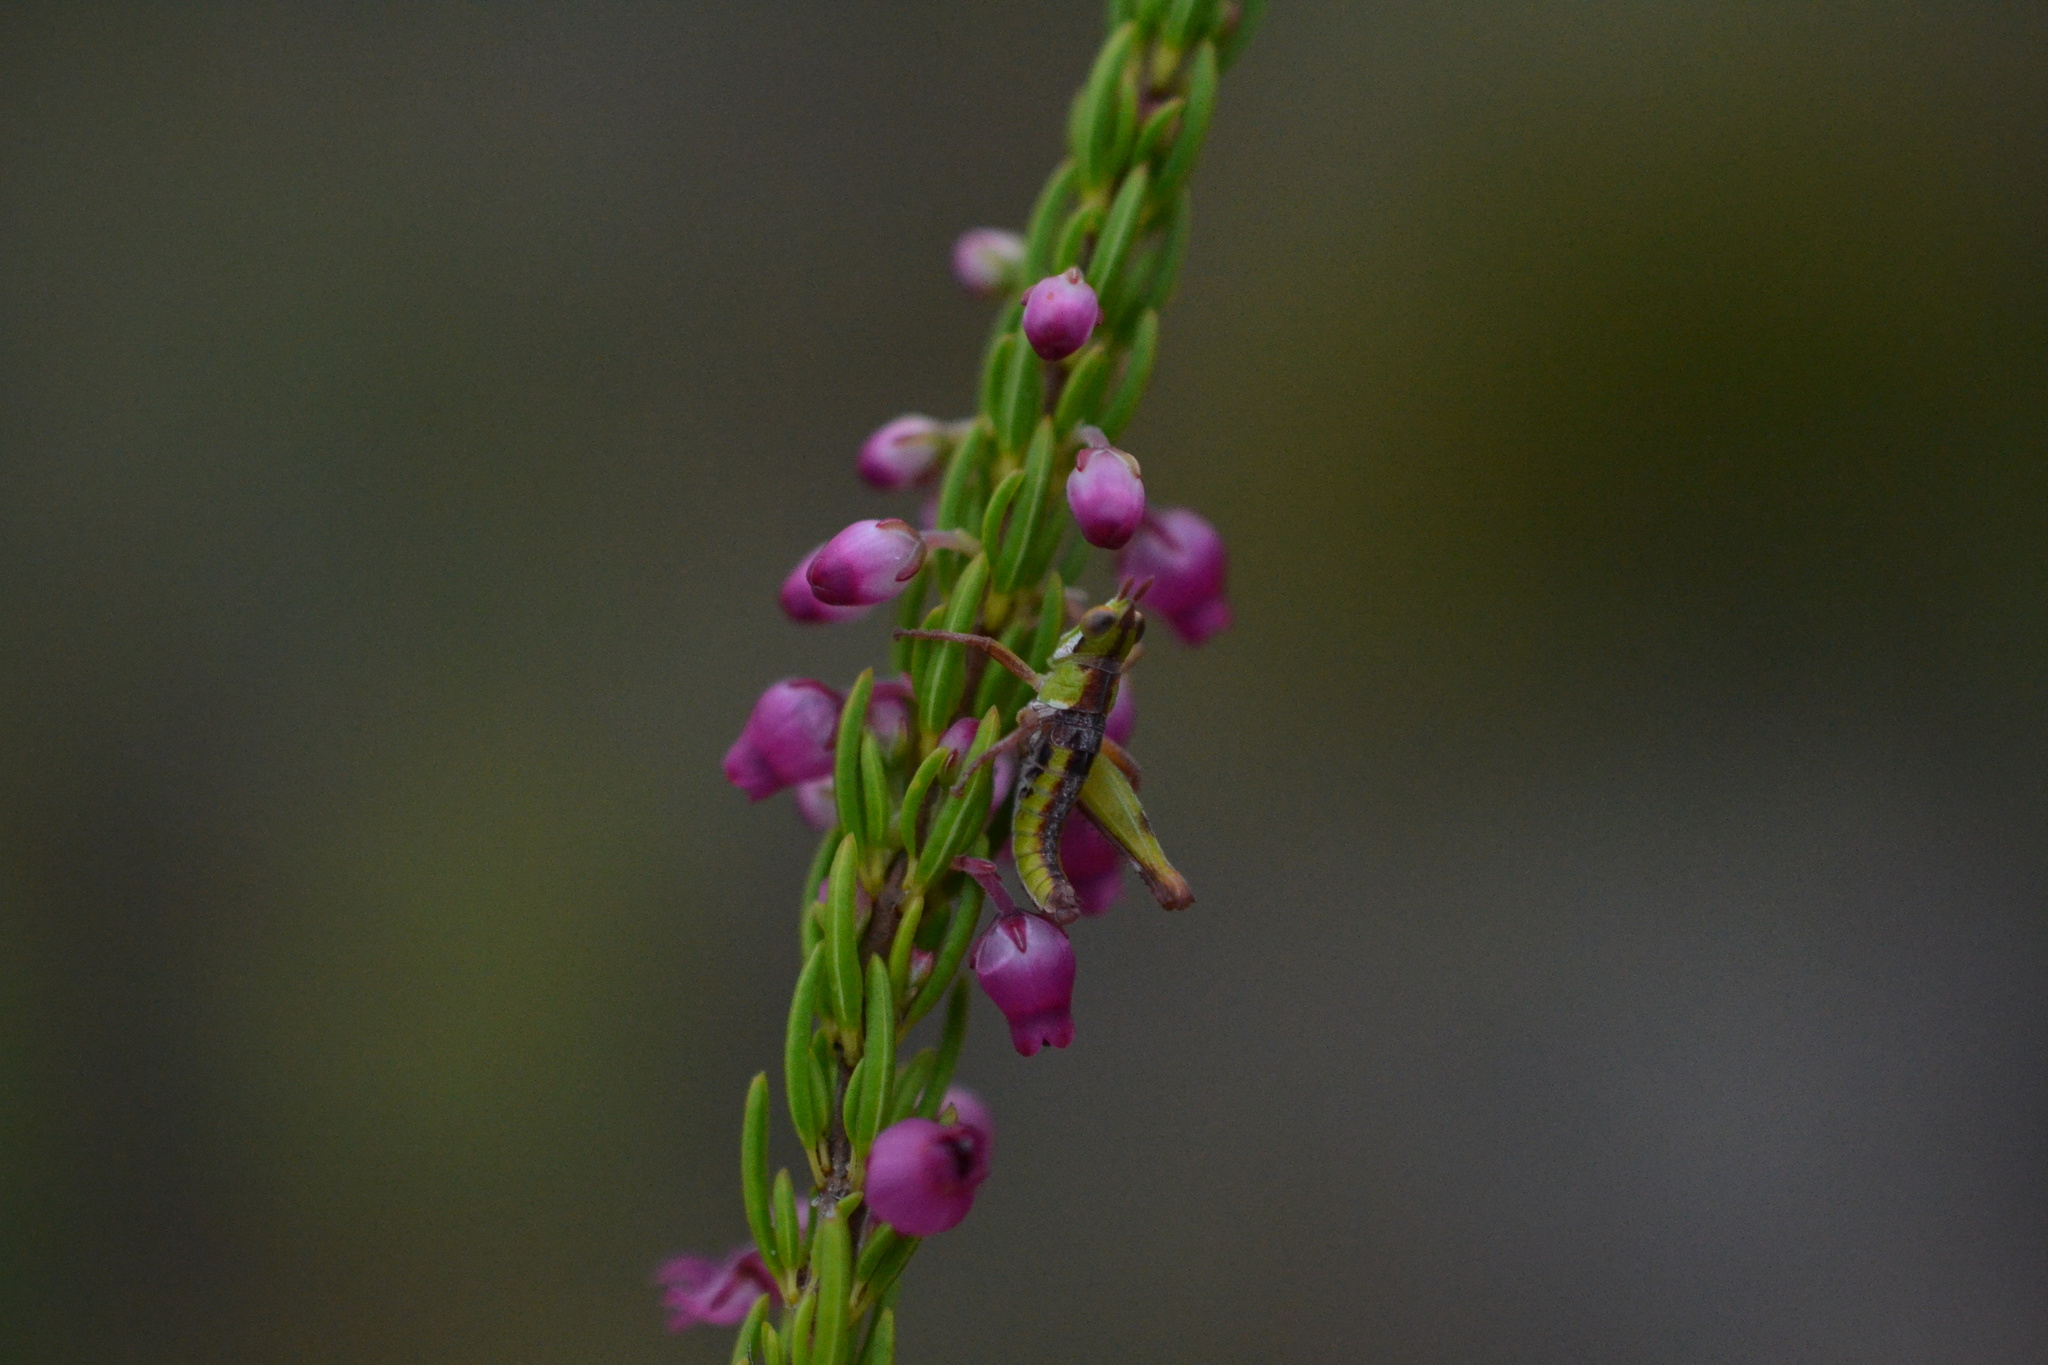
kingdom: Animalia
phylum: Arthropoda
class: Insecta
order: Orthoptera
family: Thericleidae
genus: Thericlesiella
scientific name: Thericlesiella meridionalis
